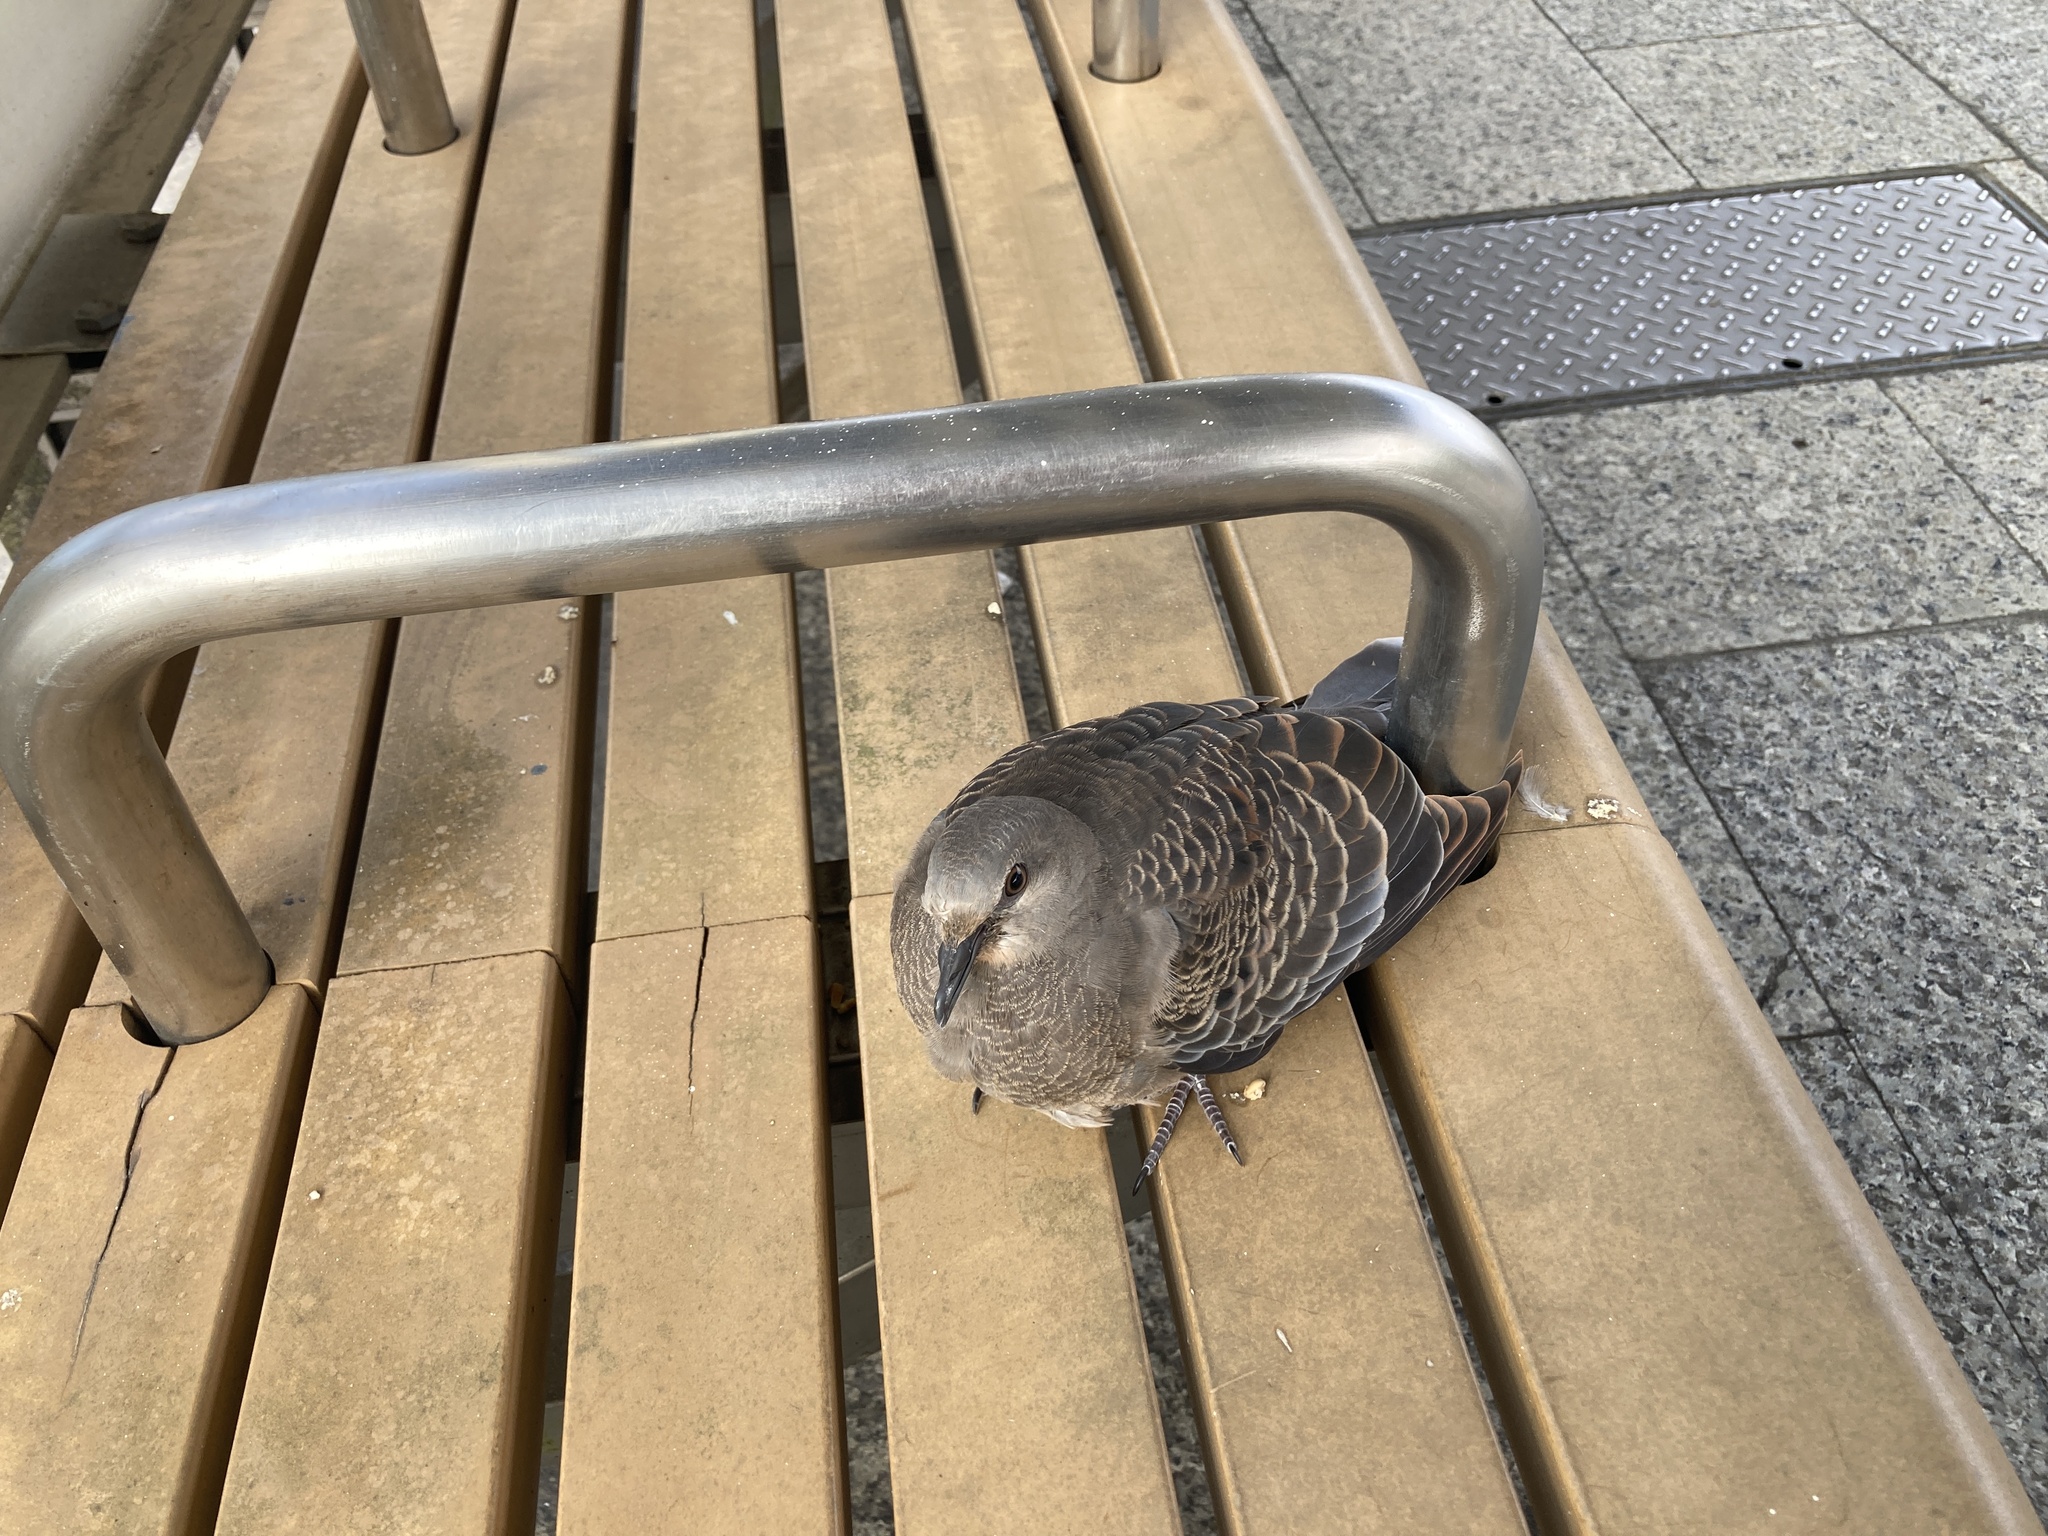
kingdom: Animalia
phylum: Chordata
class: Aves
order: Columbiformes
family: Columbidae
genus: Streptopelia
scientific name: Streptopelia orientalis
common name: Oriental turtle dove
